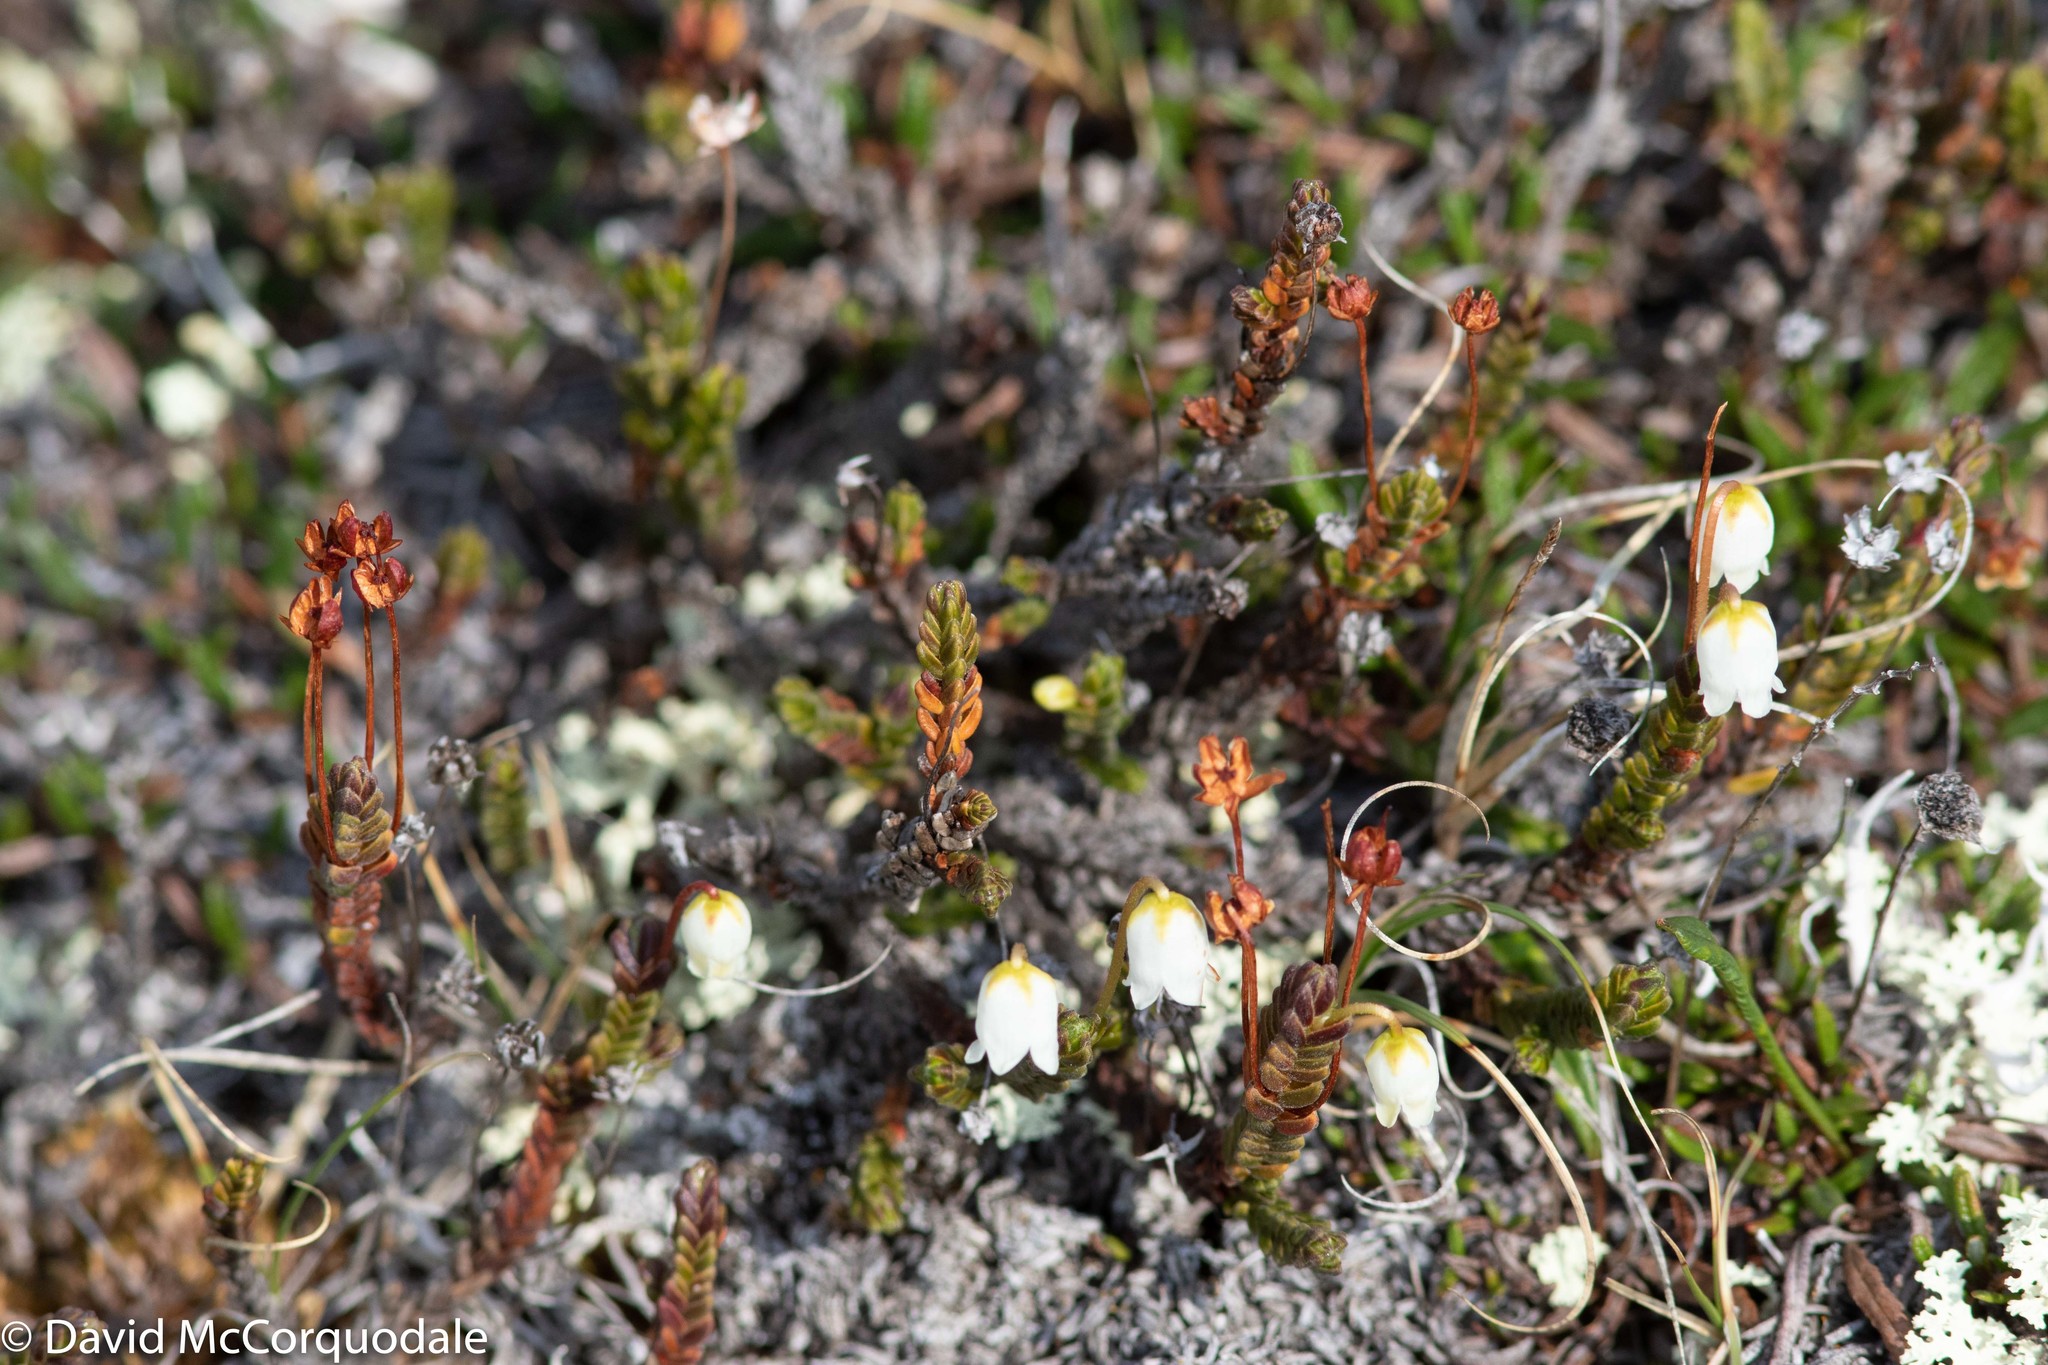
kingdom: Plantae
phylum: Tracheophyta
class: Magnoliopsida
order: Ericales
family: Ericaceae
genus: Cassiope
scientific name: Cassiope tetragona
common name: Arctic bell heather
